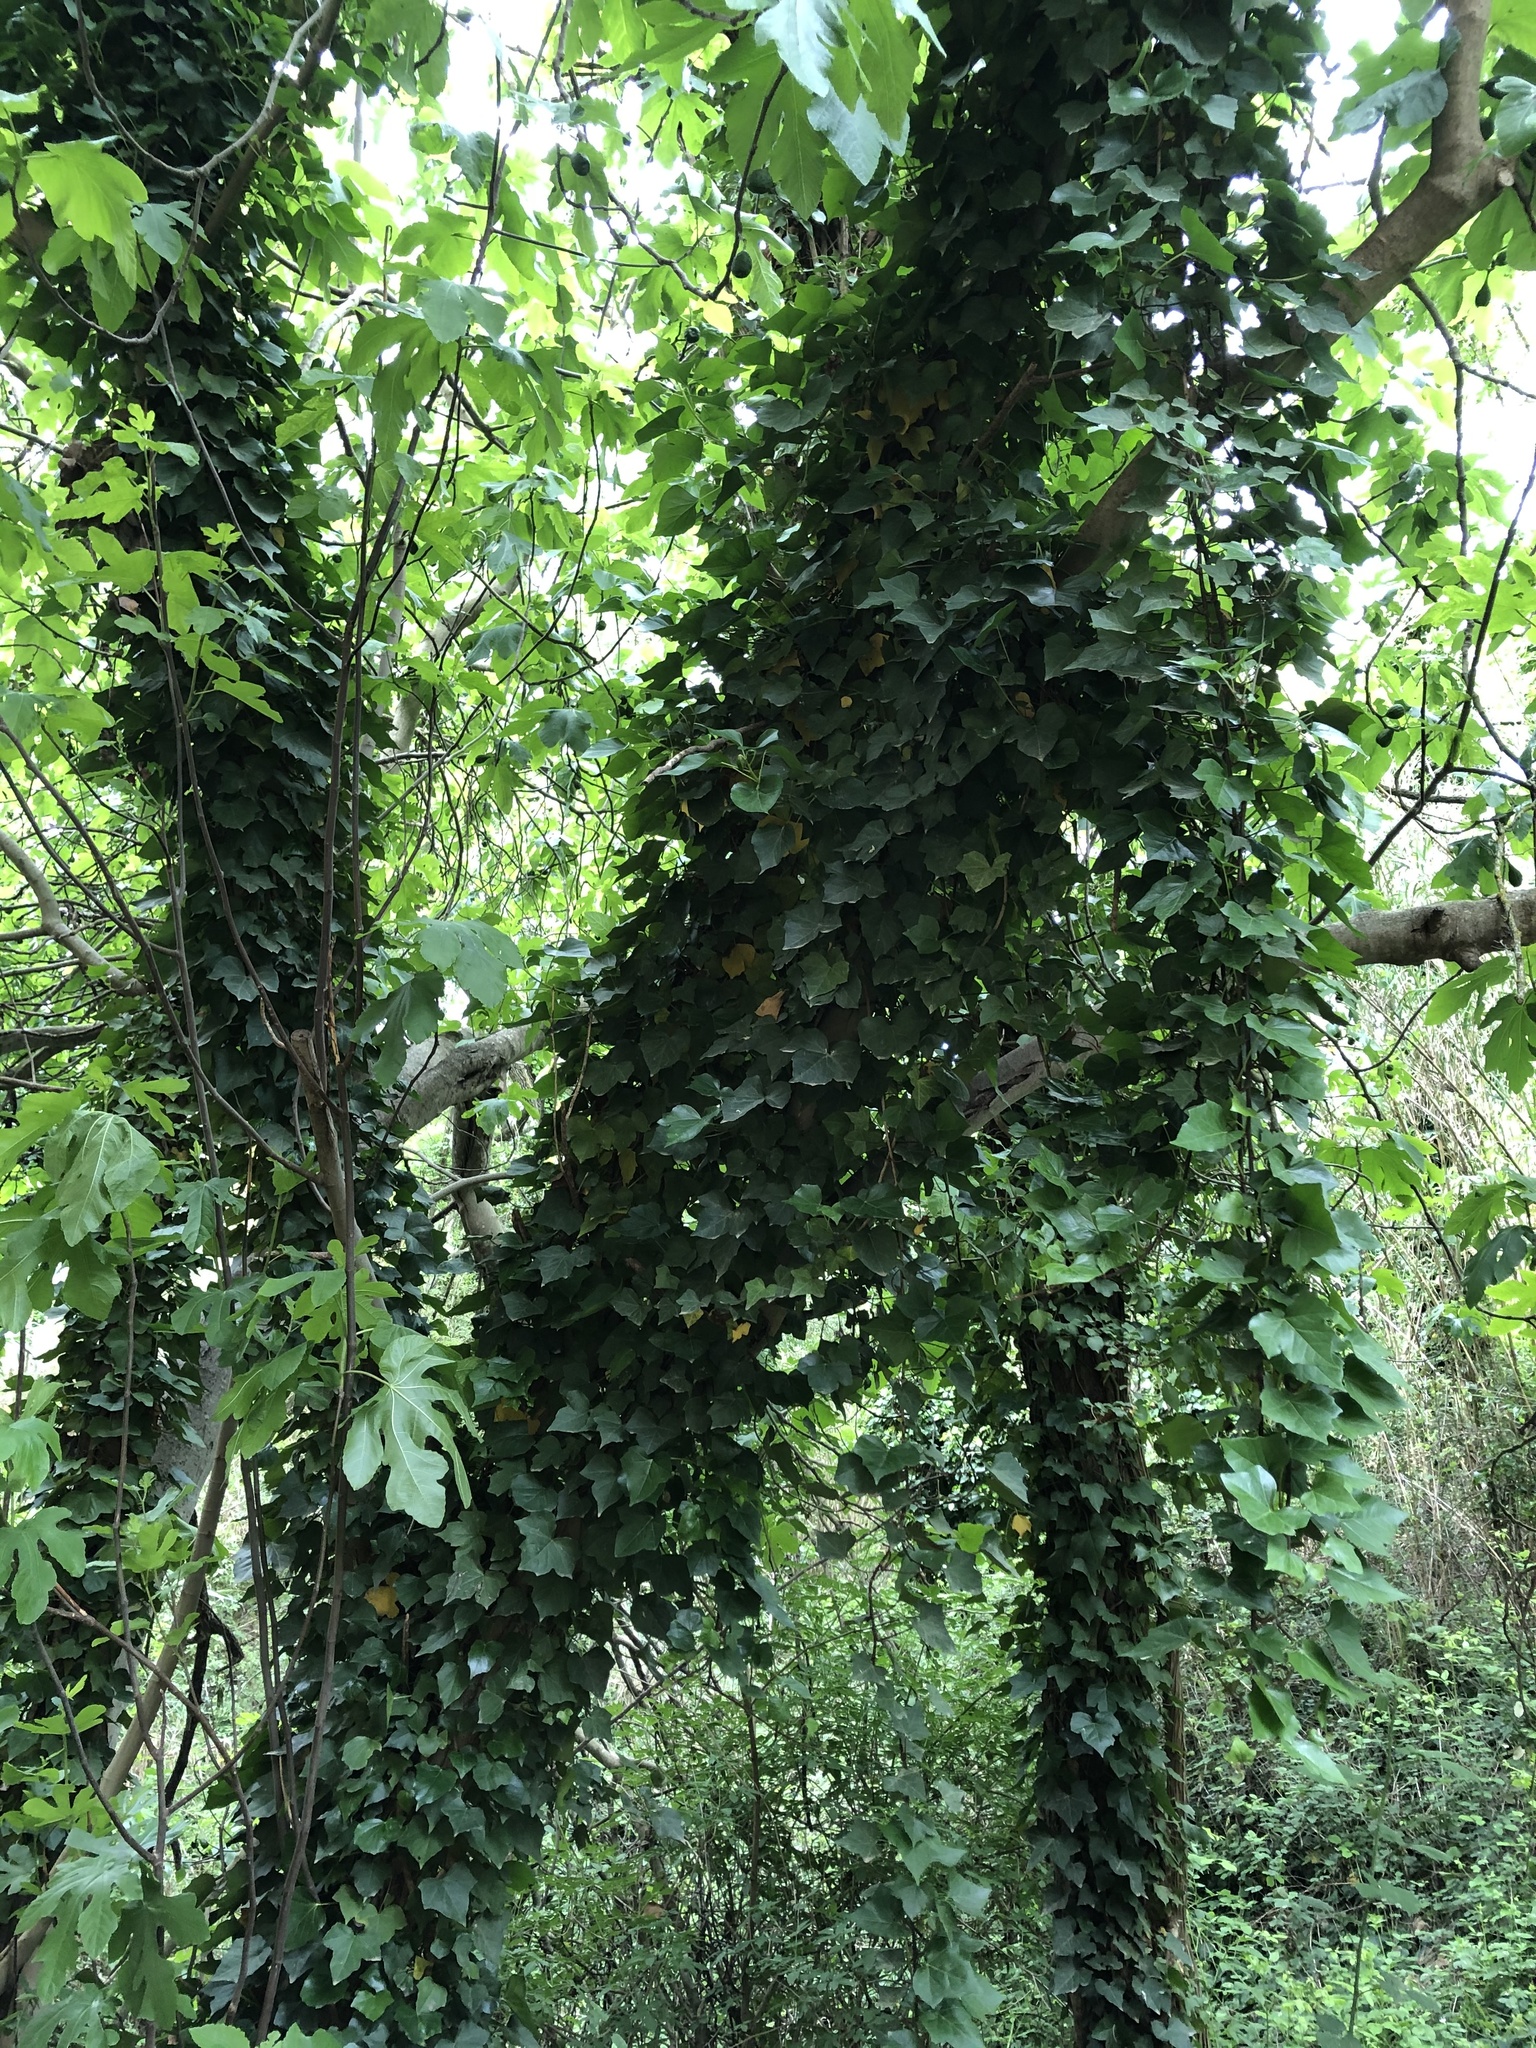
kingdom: Plantae
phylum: Tracheophyta
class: Magnoliopsida
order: Apiales
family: Araliaceae
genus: Hedera
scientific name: Hedera helix
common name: Ivy
